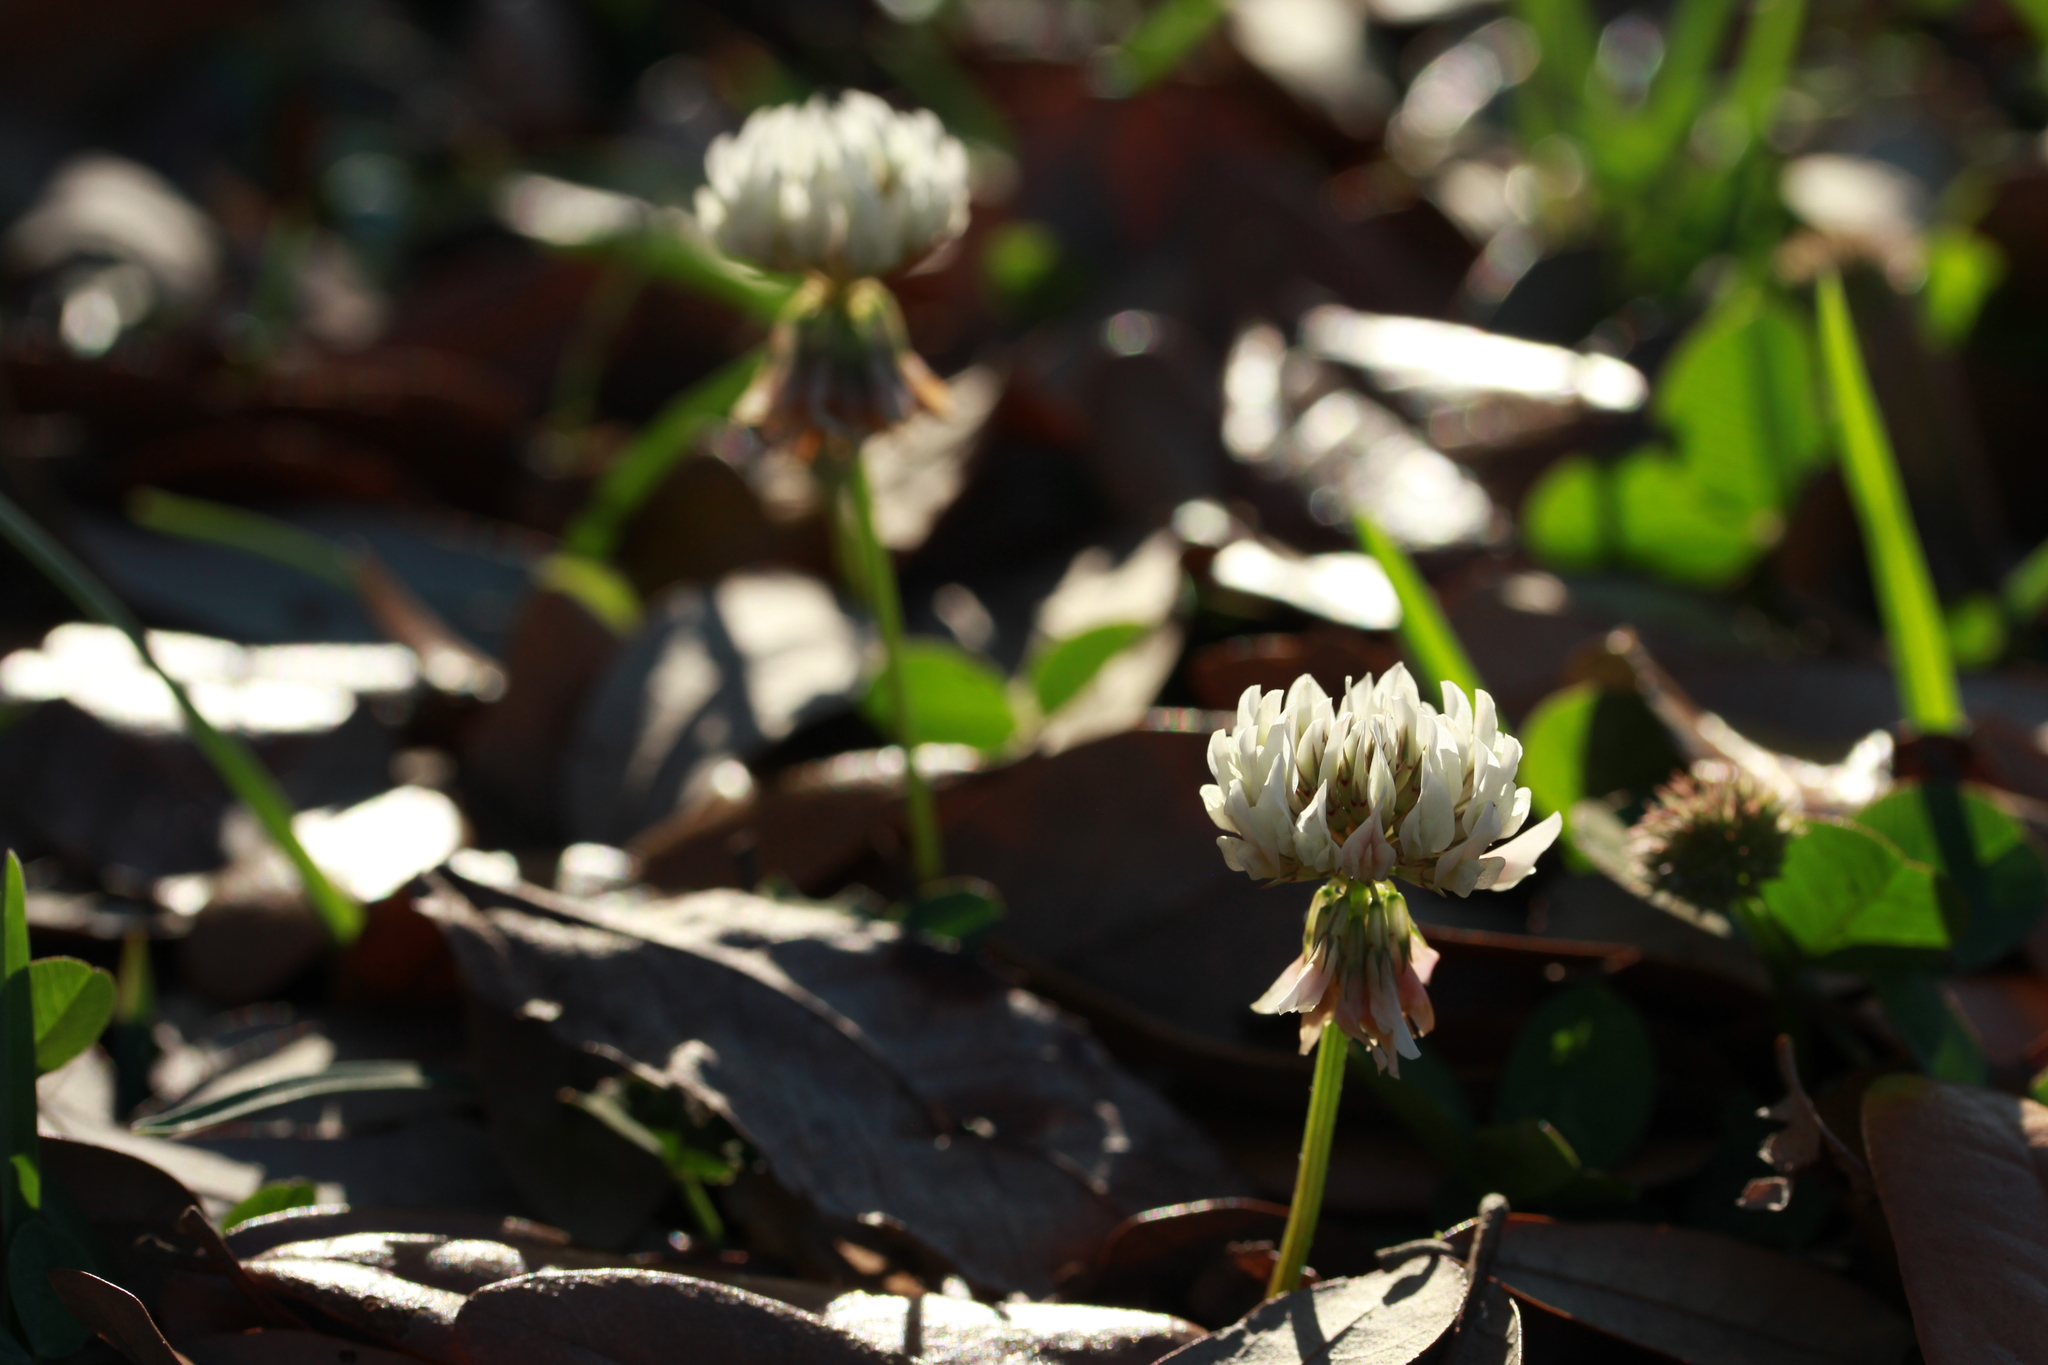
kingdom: Plantae
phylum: Tracheophyta
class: Magnoliopsida
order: Fabales
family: Fabaceae
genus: Trifolium
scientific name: Trifolium repens
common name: White clover
